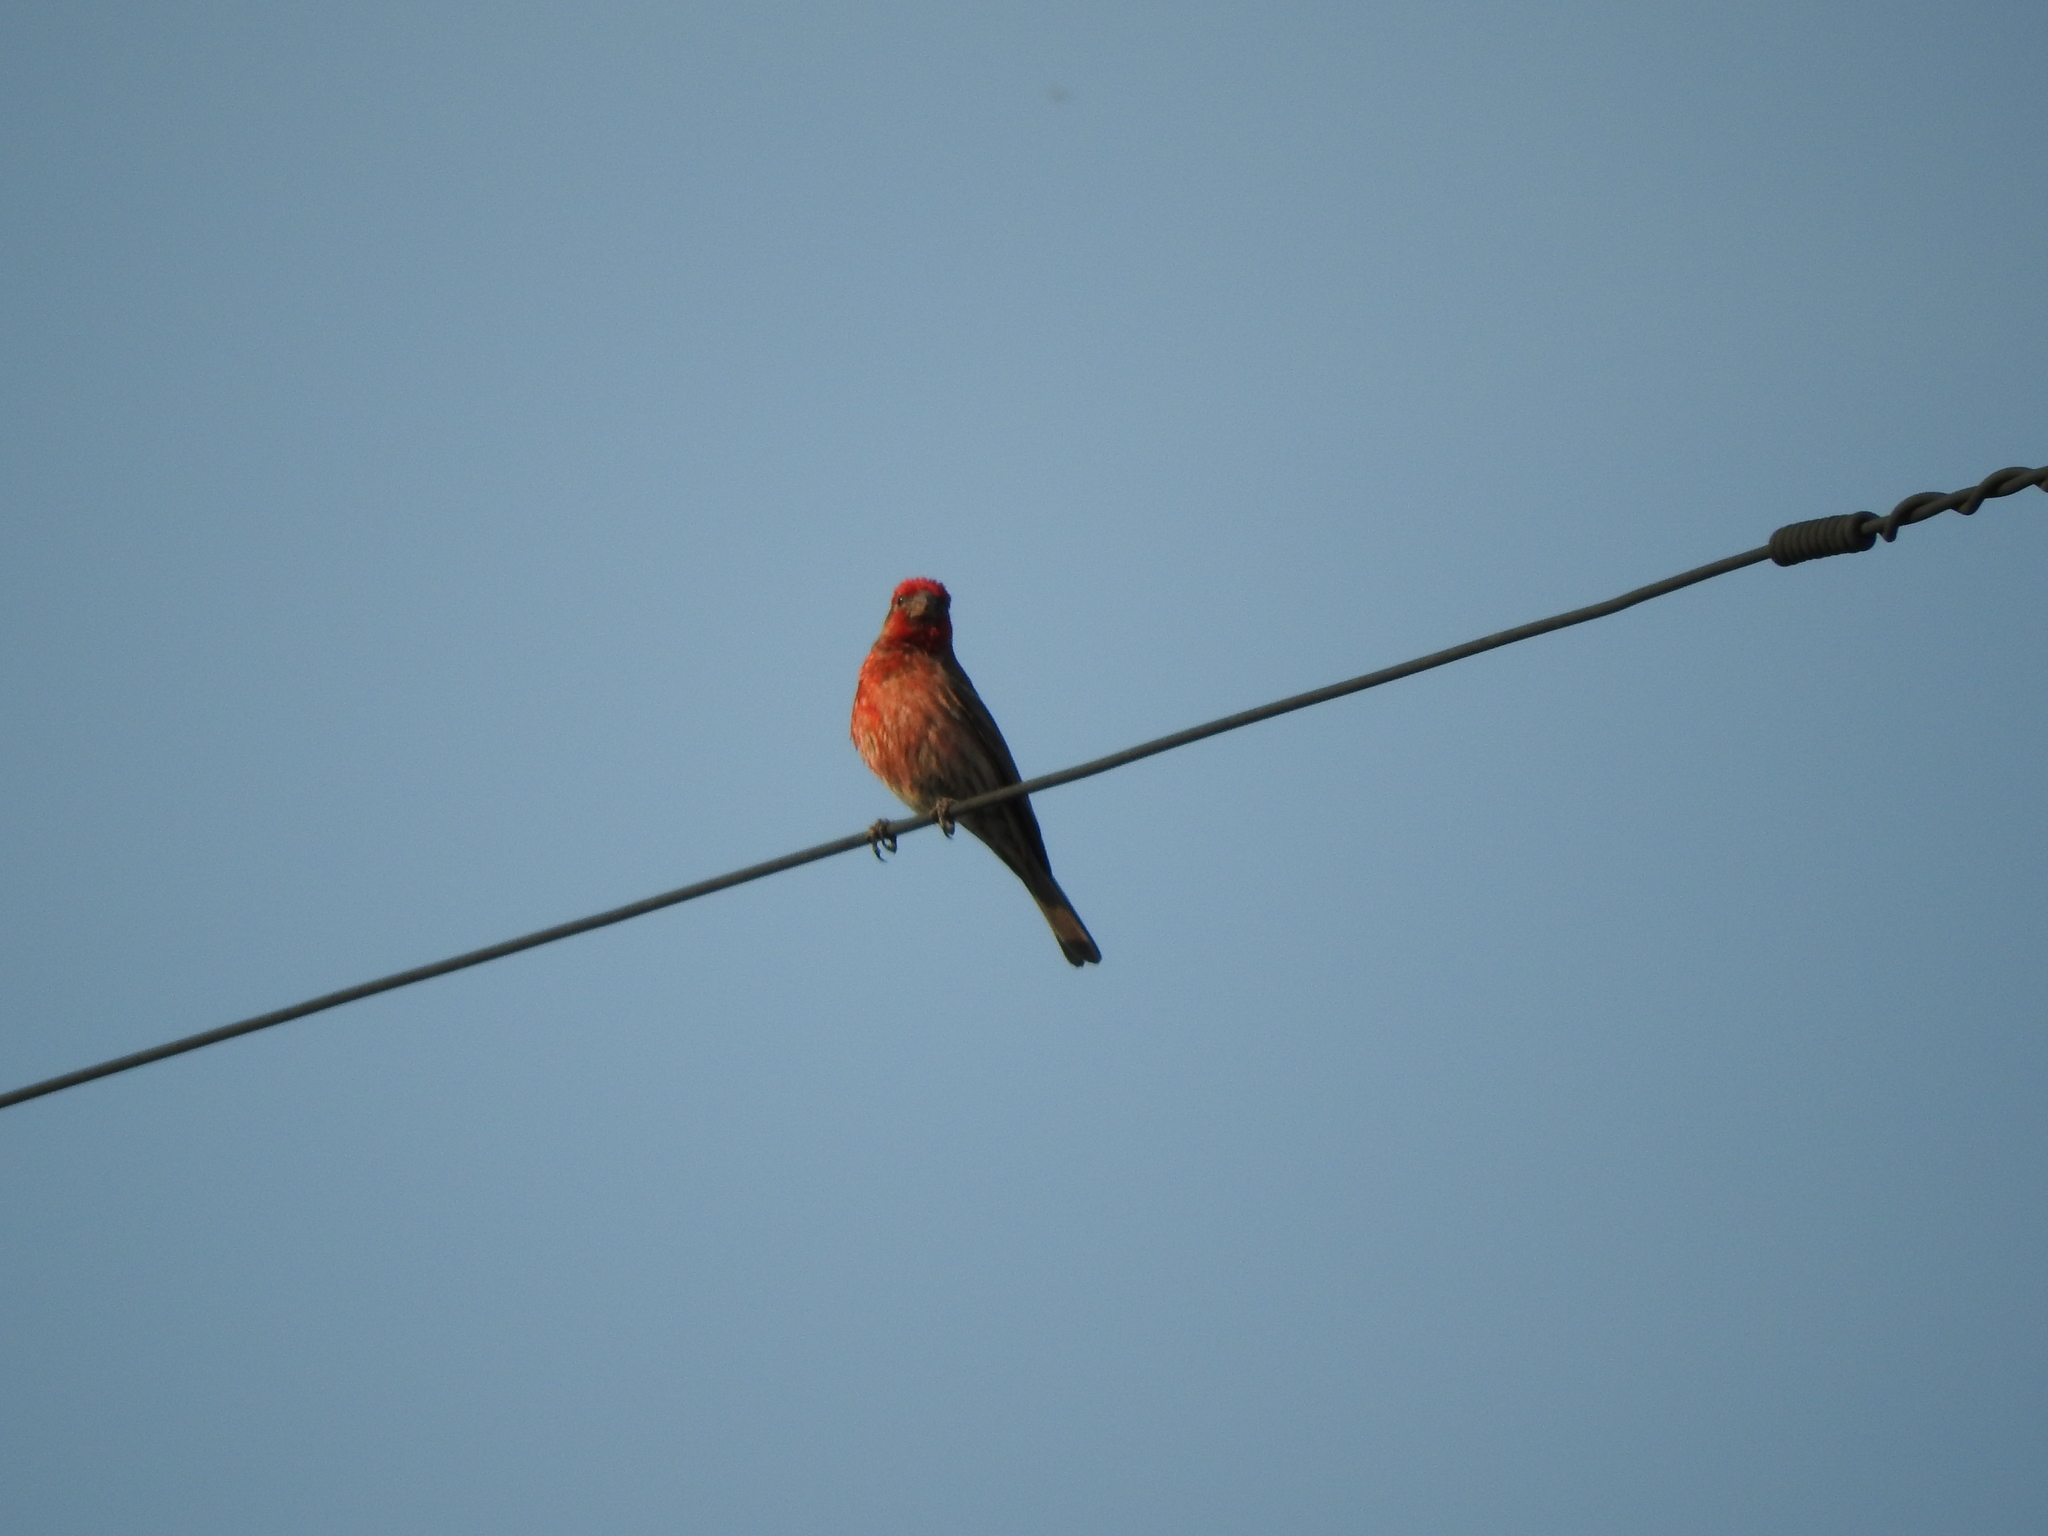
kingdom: Animalia
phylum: Chordata
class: Aves
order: Passeriformes
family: Fringillidae
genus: Haemorhous
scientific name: Haemorhous mexicanus
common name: House finch
